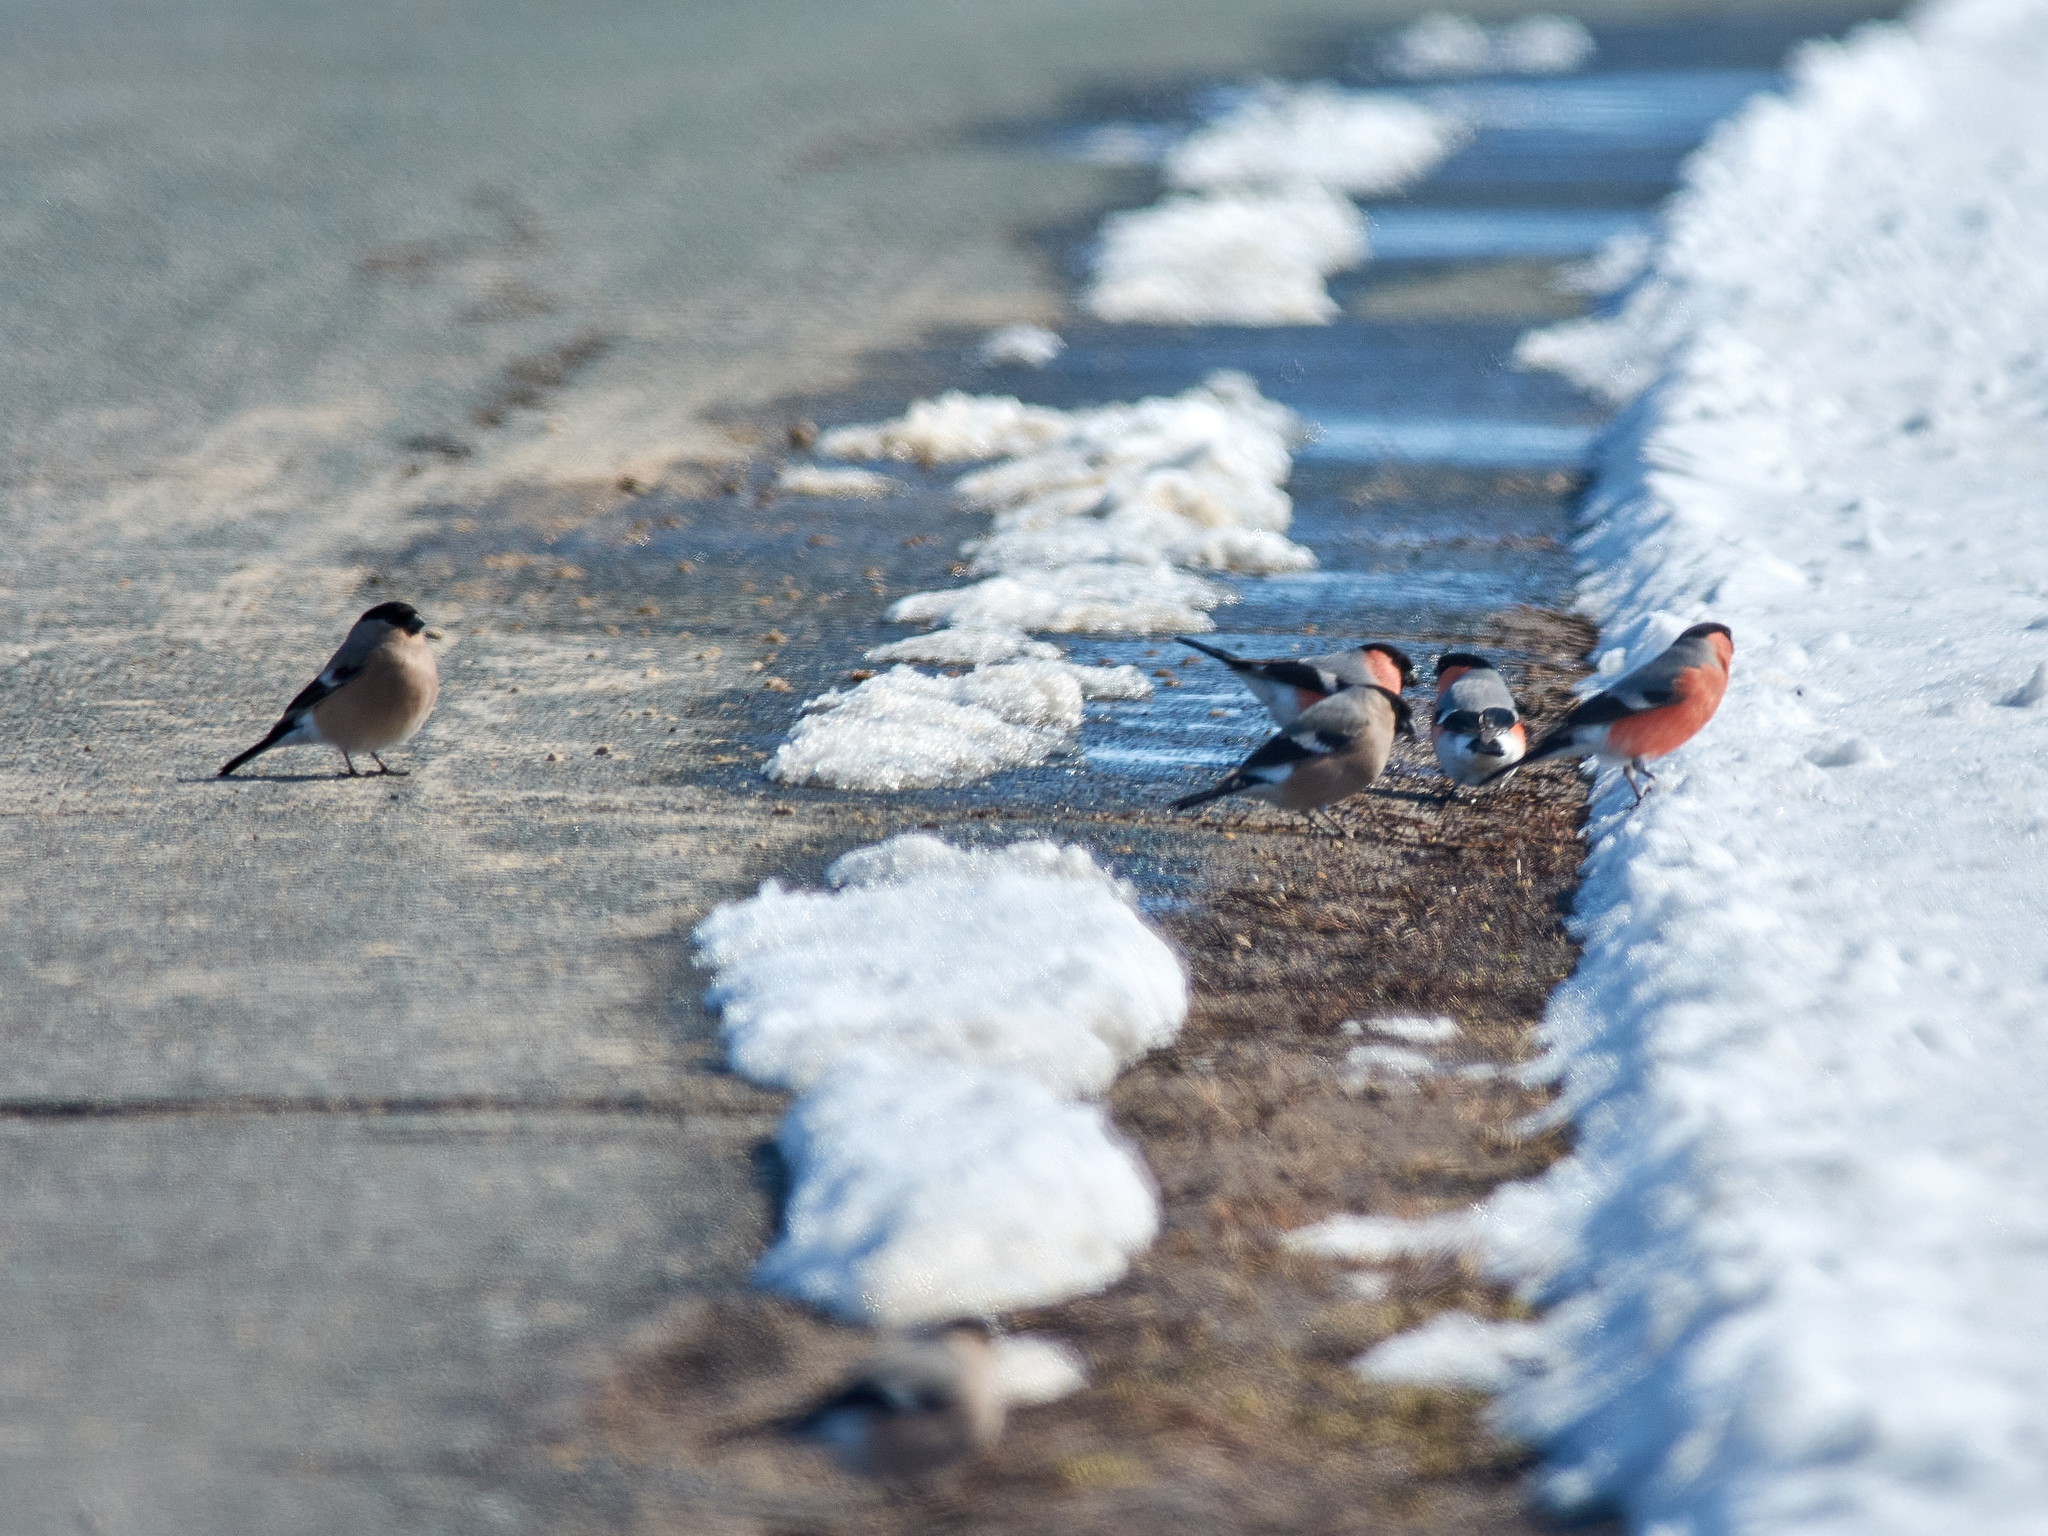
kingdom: Animalia
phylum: Chordata
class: Aves
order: Passeriformes
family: Fringillidae
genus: Pyrrhula
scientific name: Pyrrhula pyrrhula
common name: Eurasian bullfinch
